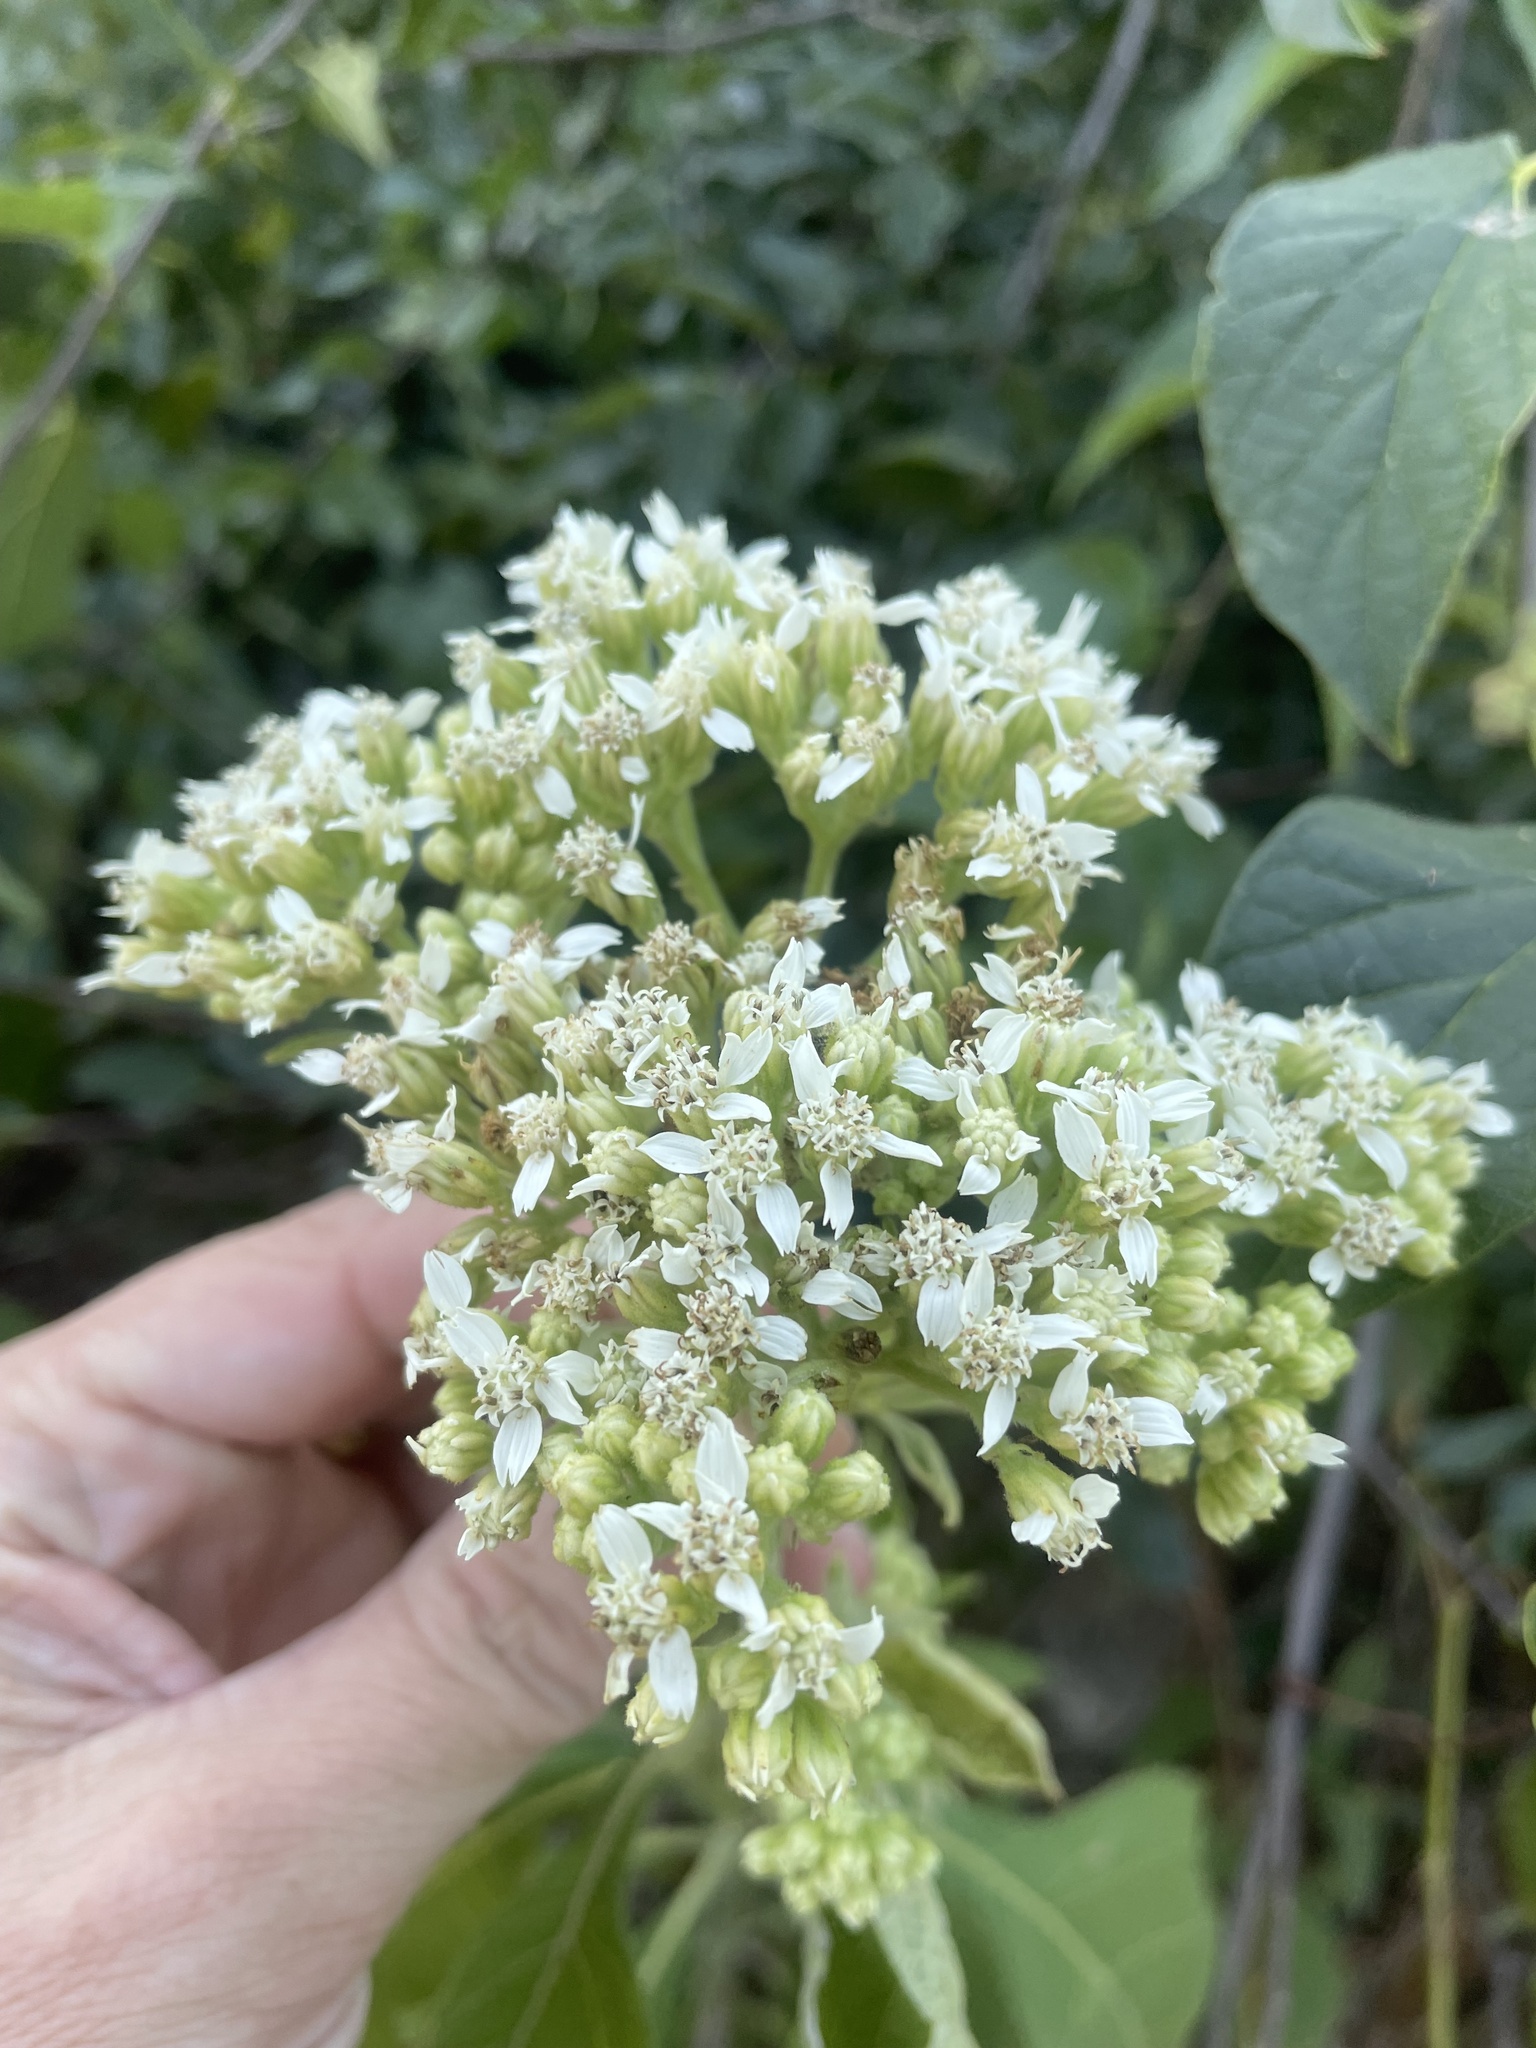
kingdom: Plantae
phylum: Tracheophyta
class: Magnoliopsida
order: Asterales
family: Asteraceae
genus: Verbesina
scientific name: Verbesina virginica
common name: Frostweed
